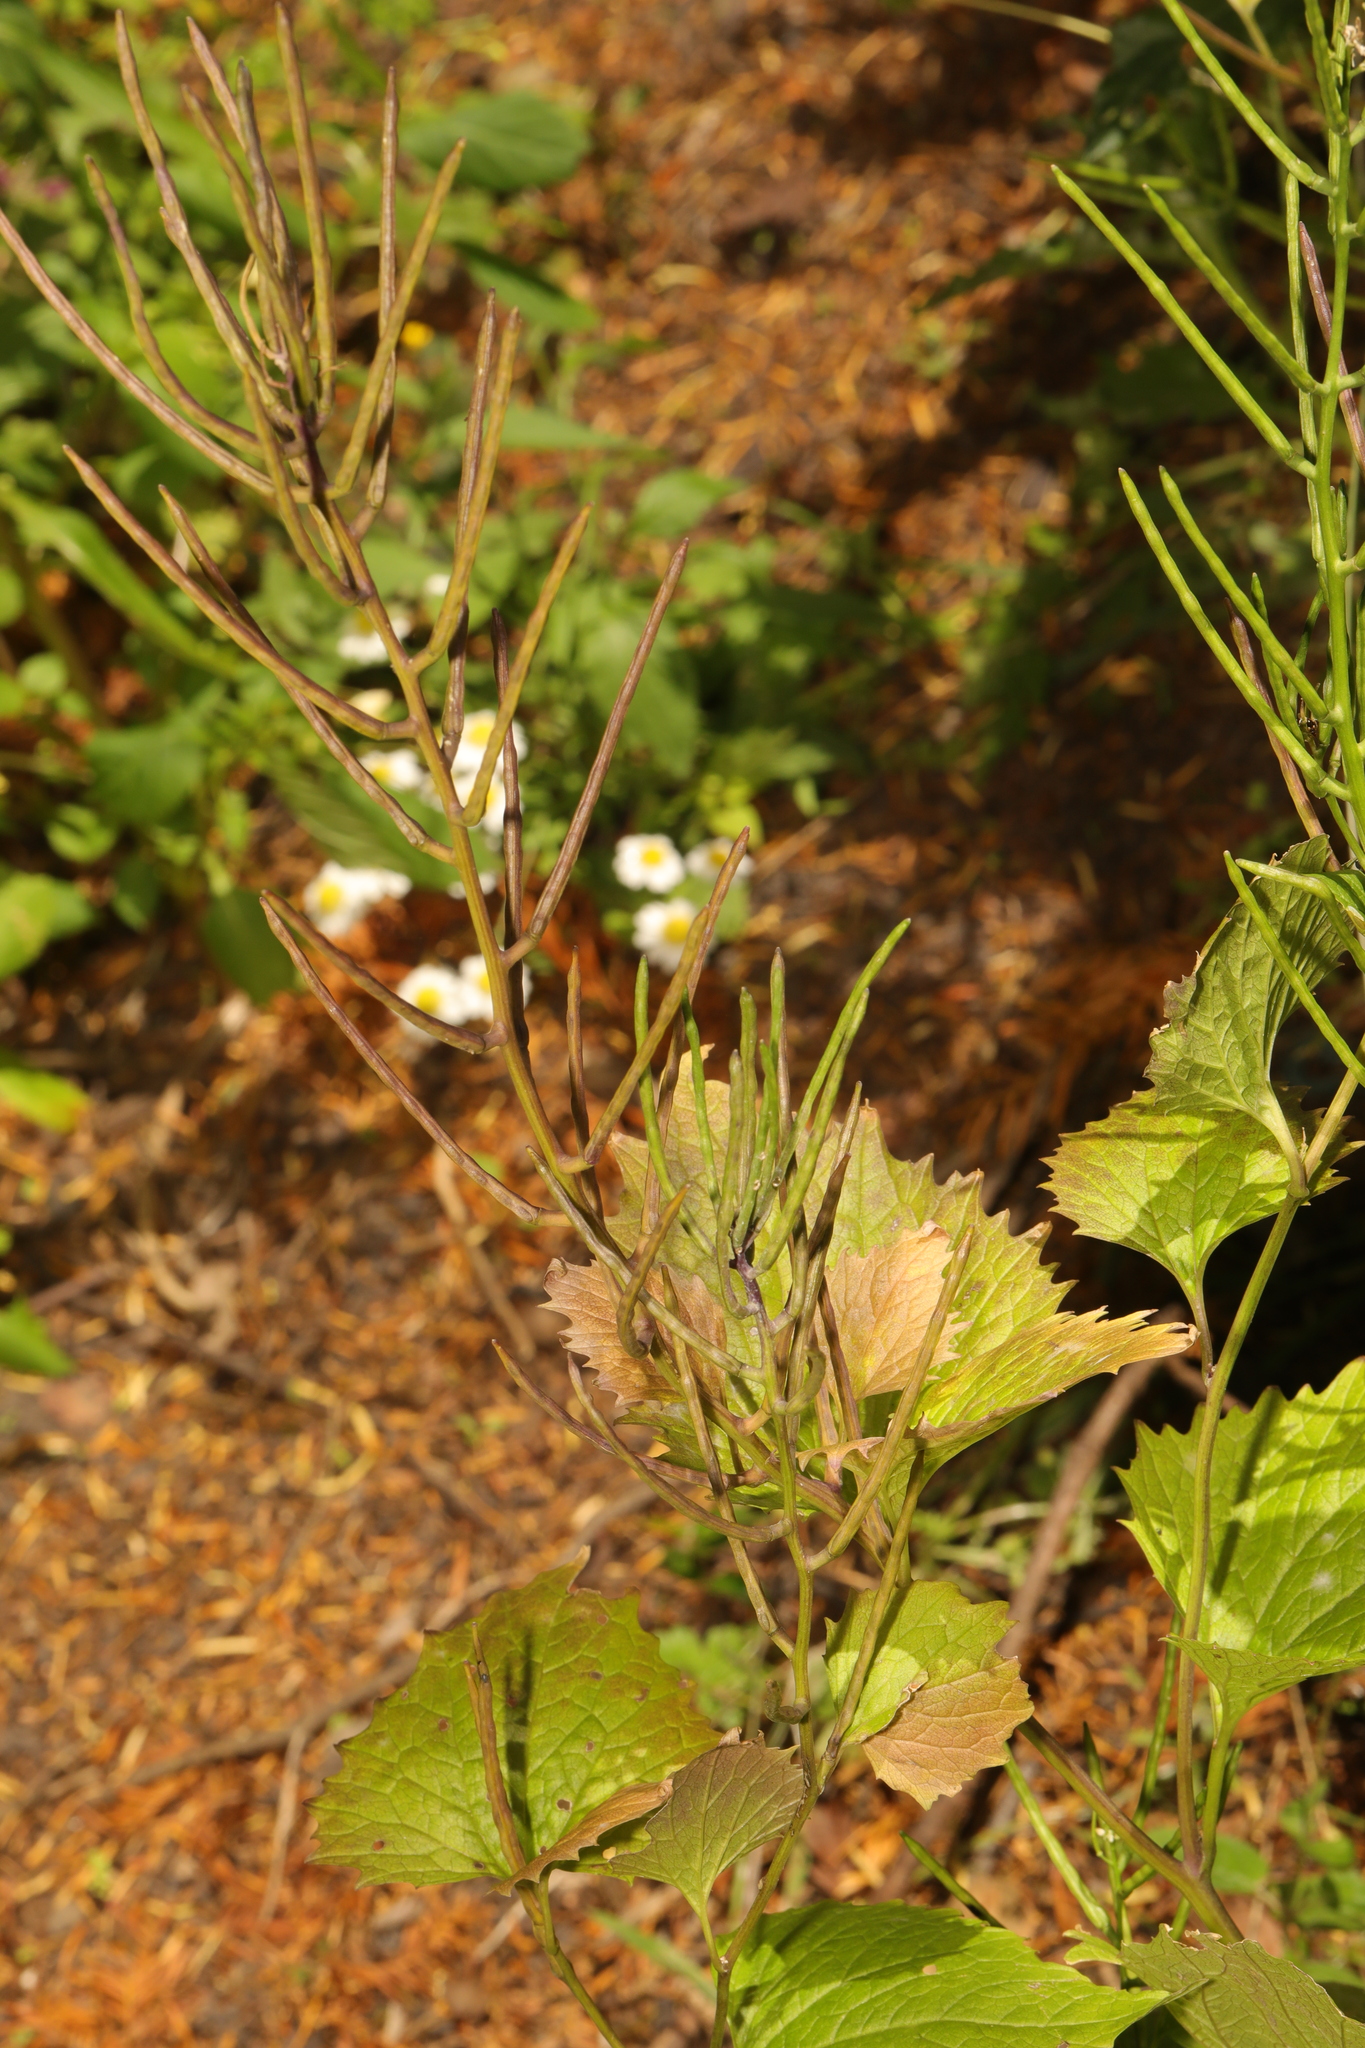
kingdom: Plantae
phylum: Tracheophyta
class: Magnoliopsida
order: Brassicales
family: Brassicaceae
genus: Alliaria
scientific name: Alliaria petiolata
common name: Garlic mustard
